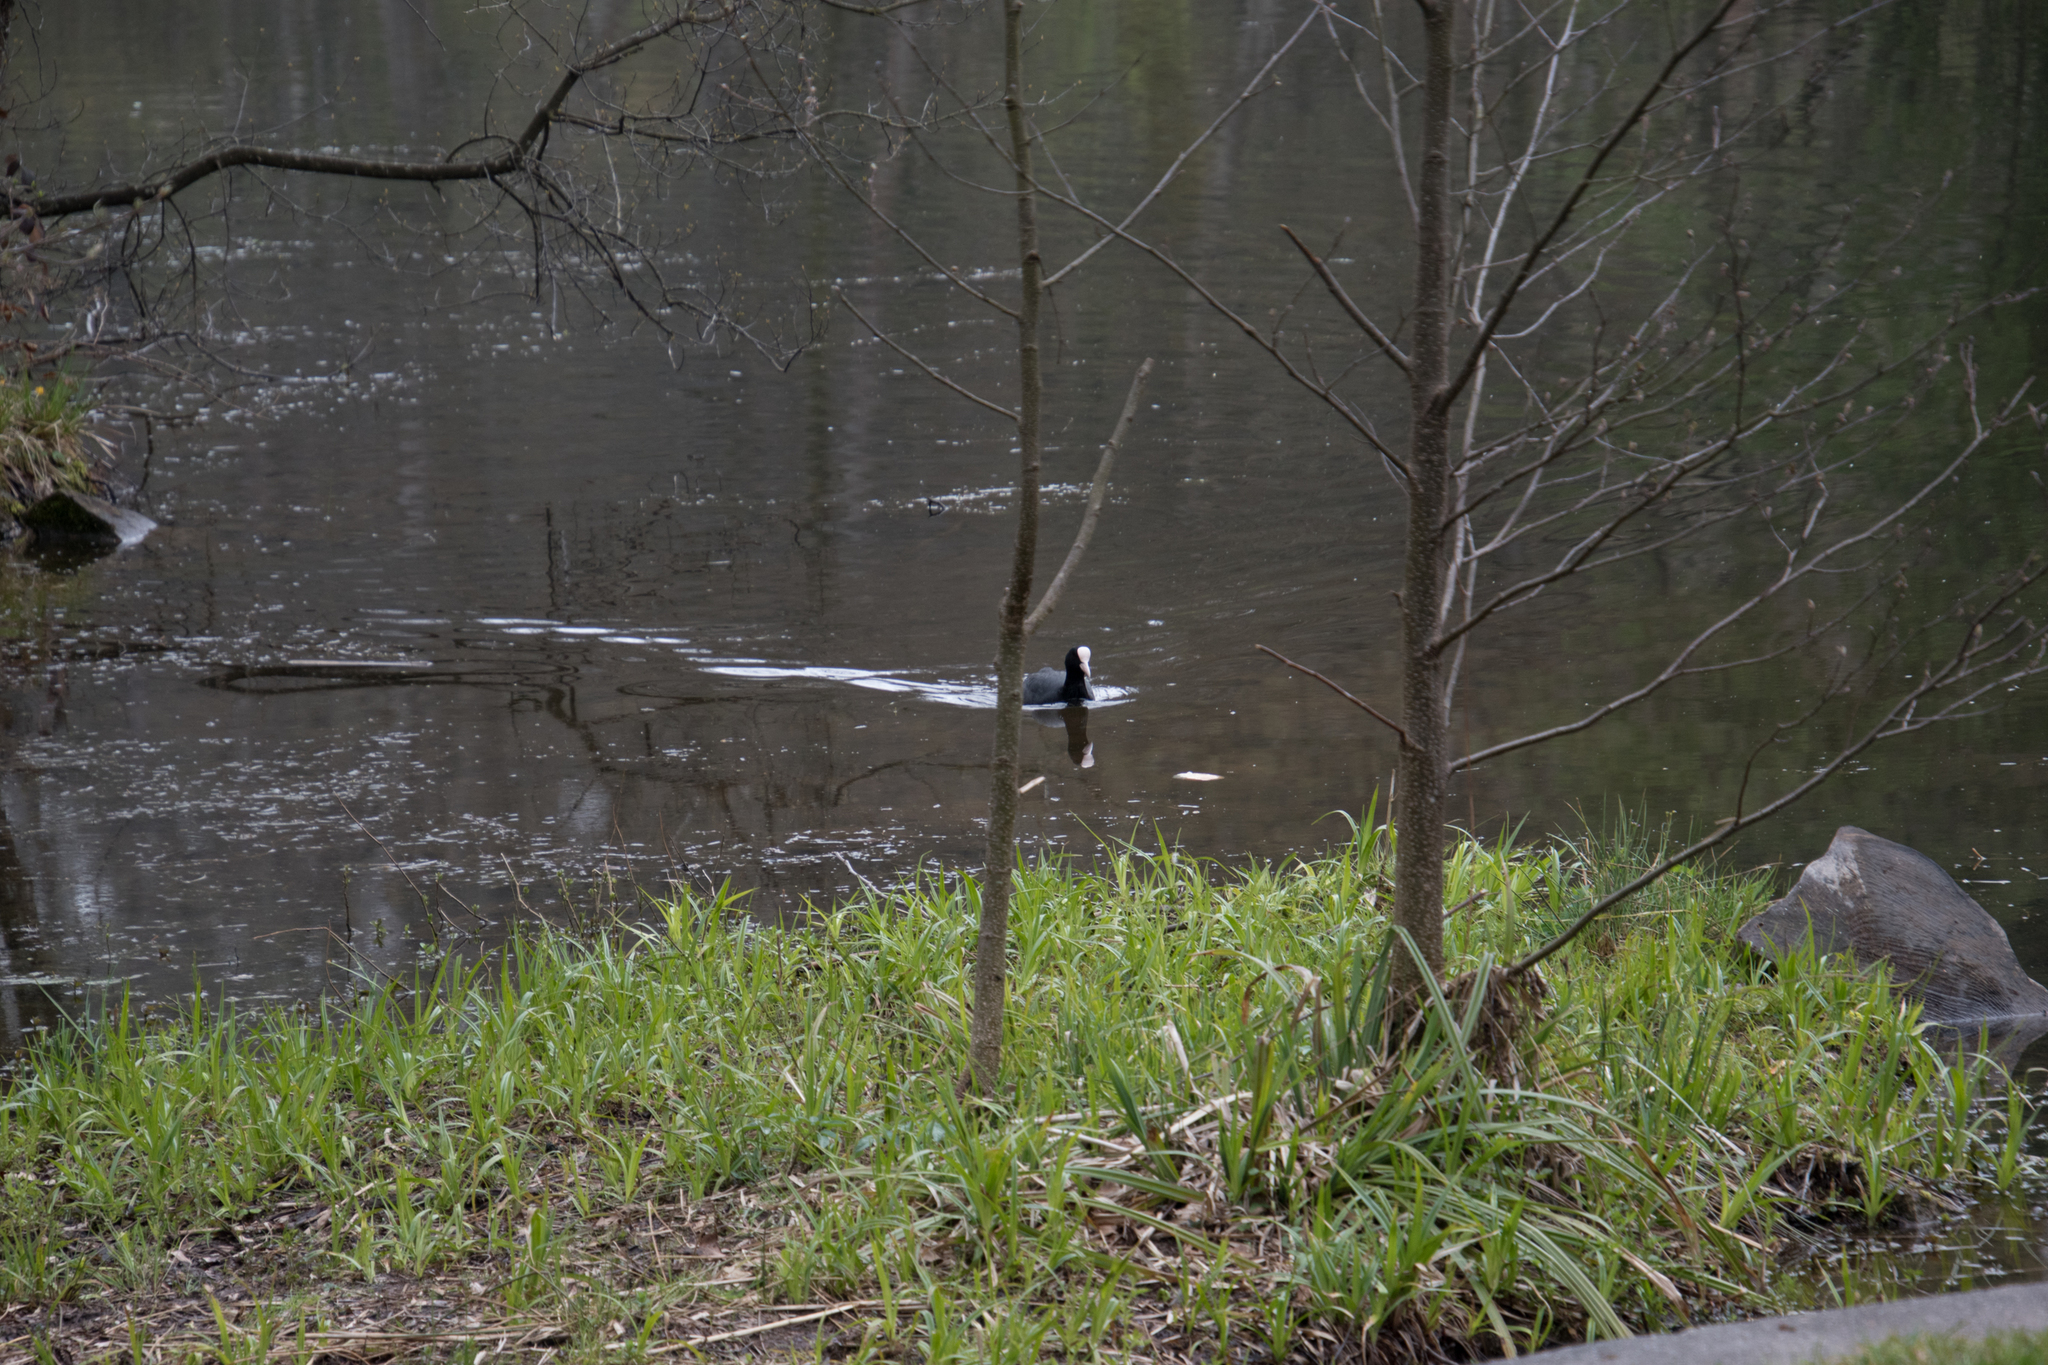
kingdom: Animalia
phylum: Chordata
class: Aves
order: Gruiformes
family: Rallidae
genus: Fulica
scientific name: Fulica atra
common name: Eurasian coot
